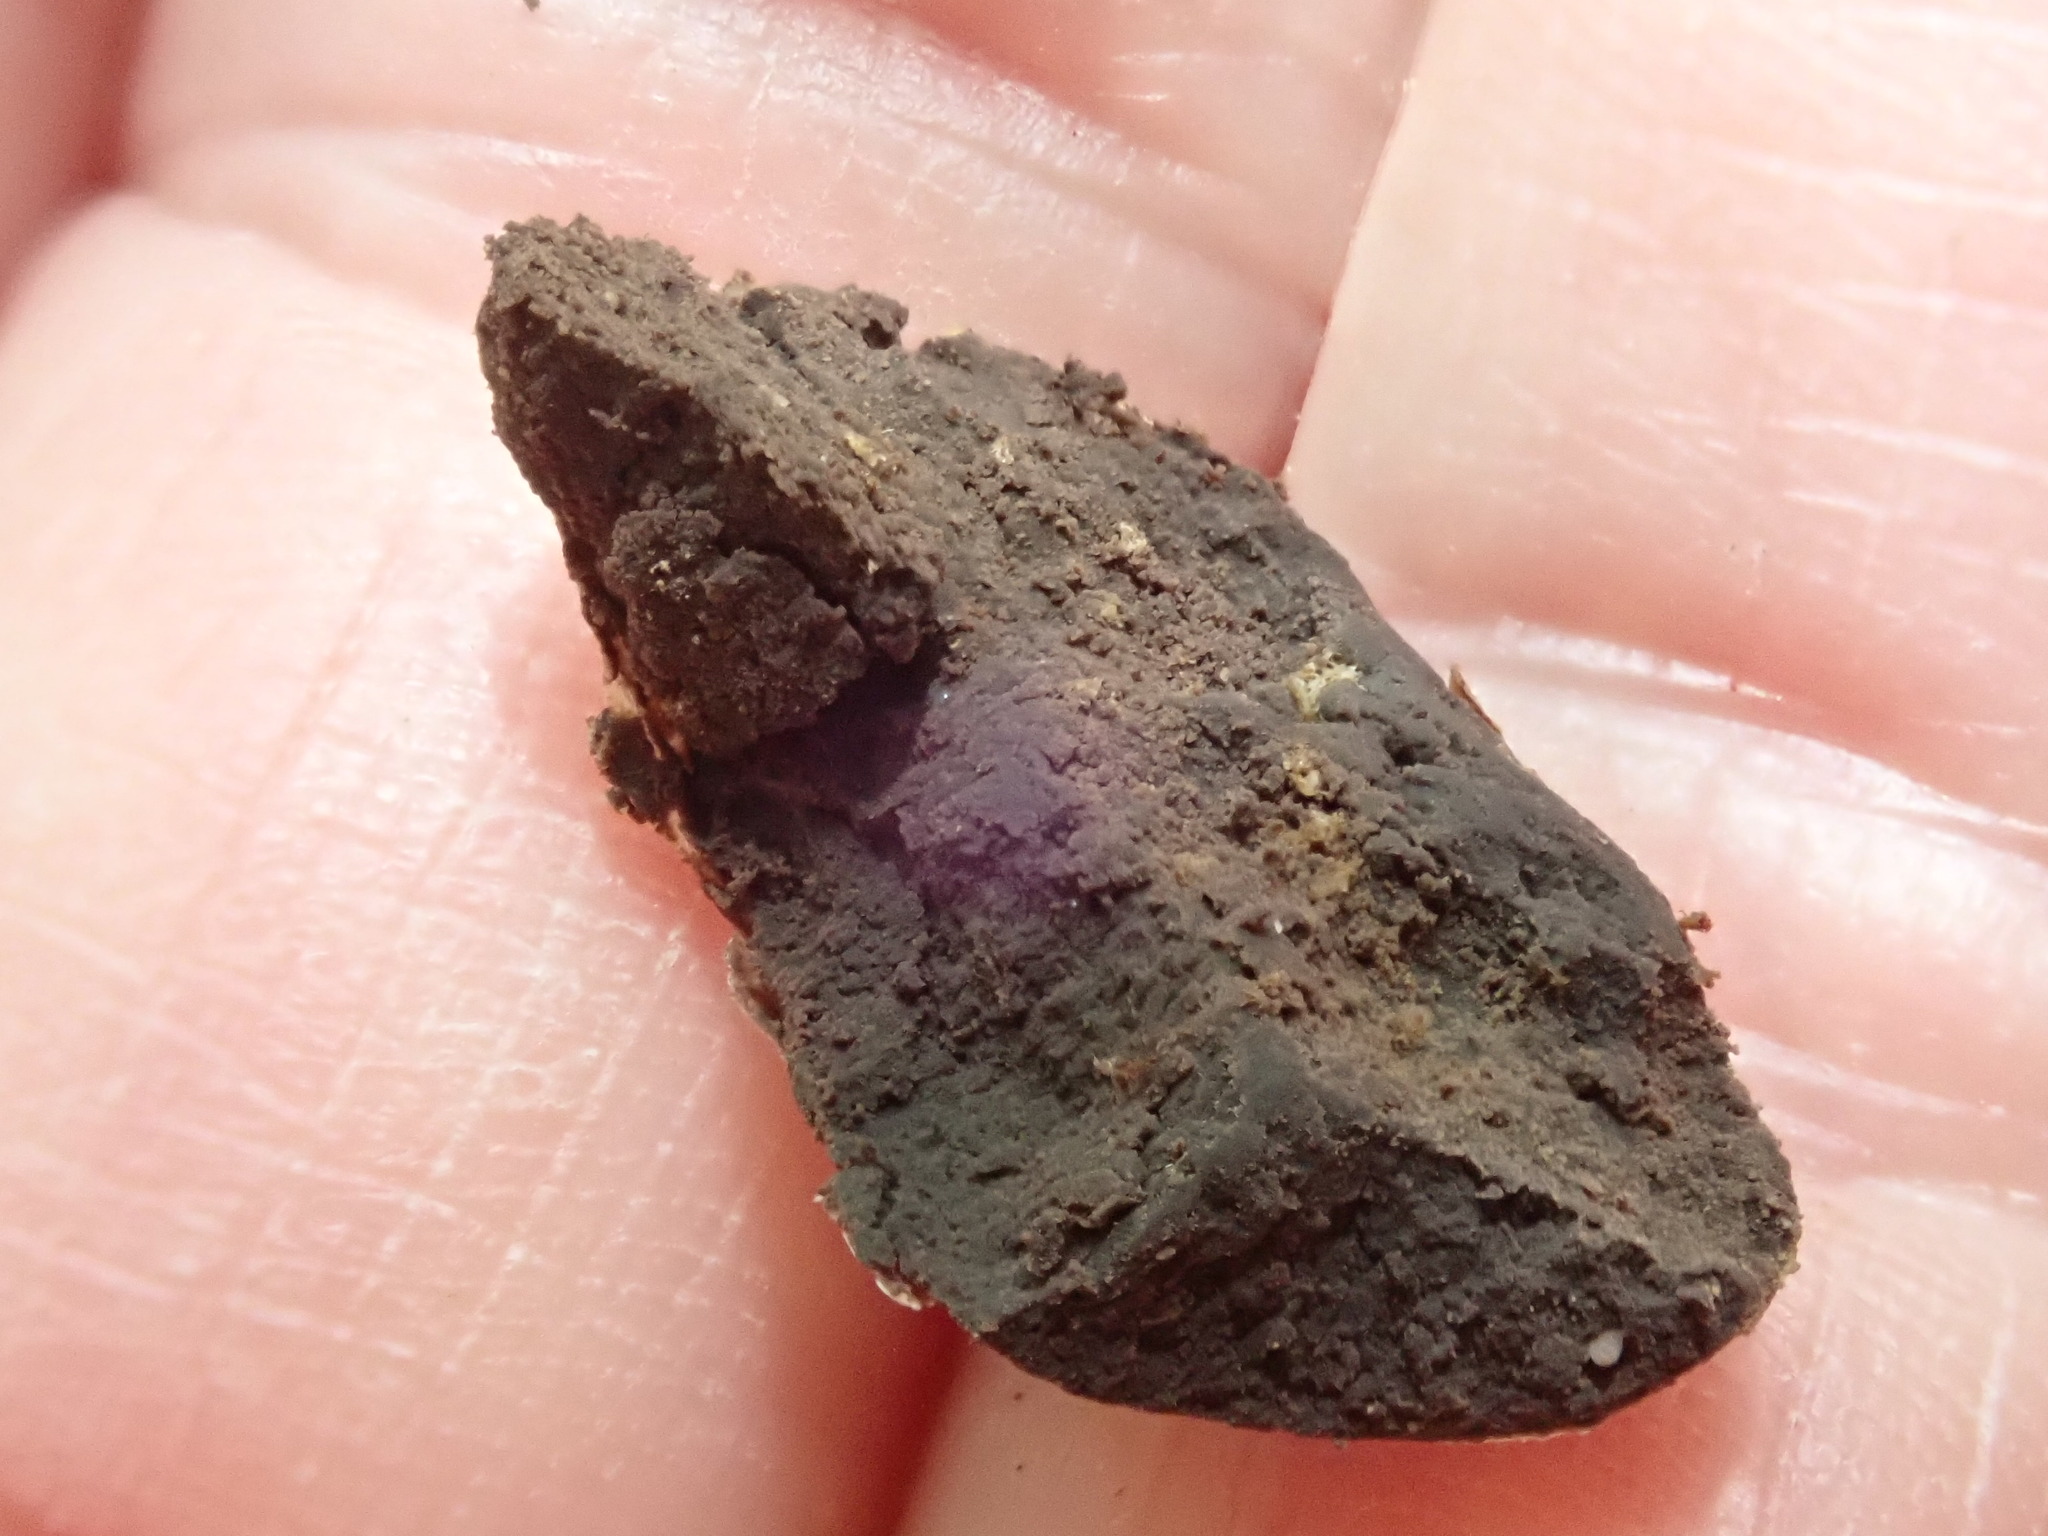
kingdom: Protozoa
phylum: Mycetozoa
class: Myxomycetes
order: Cribrariales
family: Tubiferaceae
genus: Reticularia
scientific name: Reticularia lycoperdon
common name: False puffball
